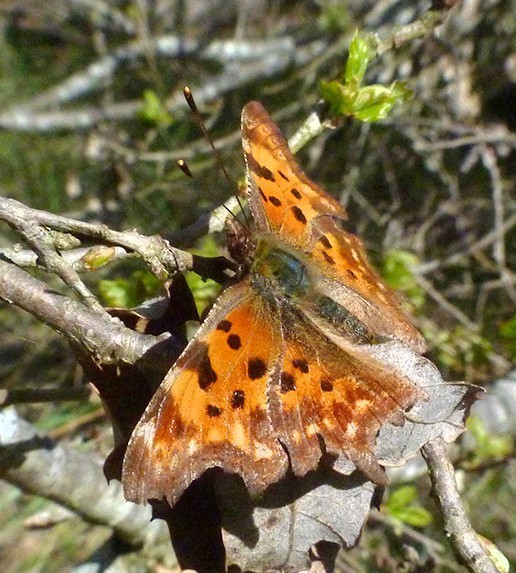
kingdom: Animalia
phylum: Arthropoda
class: Insecta
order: Lepidoptera
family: Nymphalidae
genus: Polygonia
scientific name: Polygonia c-album
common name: Comma
